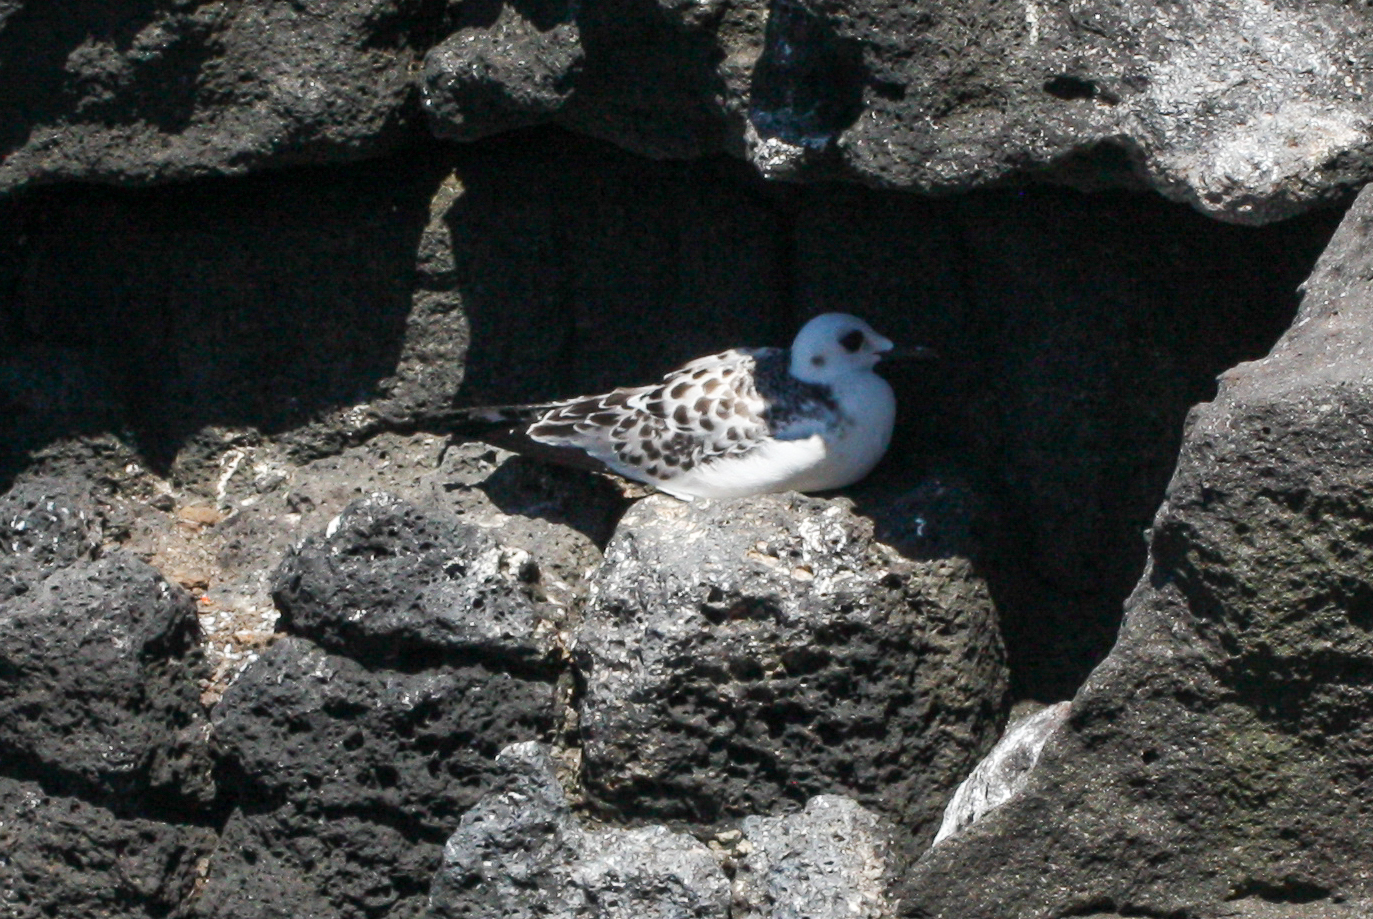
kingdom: Animalia
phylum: Chordata
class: Aves
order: Charadriiformes
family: Laridae
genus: Creagrus
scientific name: Creagrus furcatus
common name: Swallow-tailed gull
